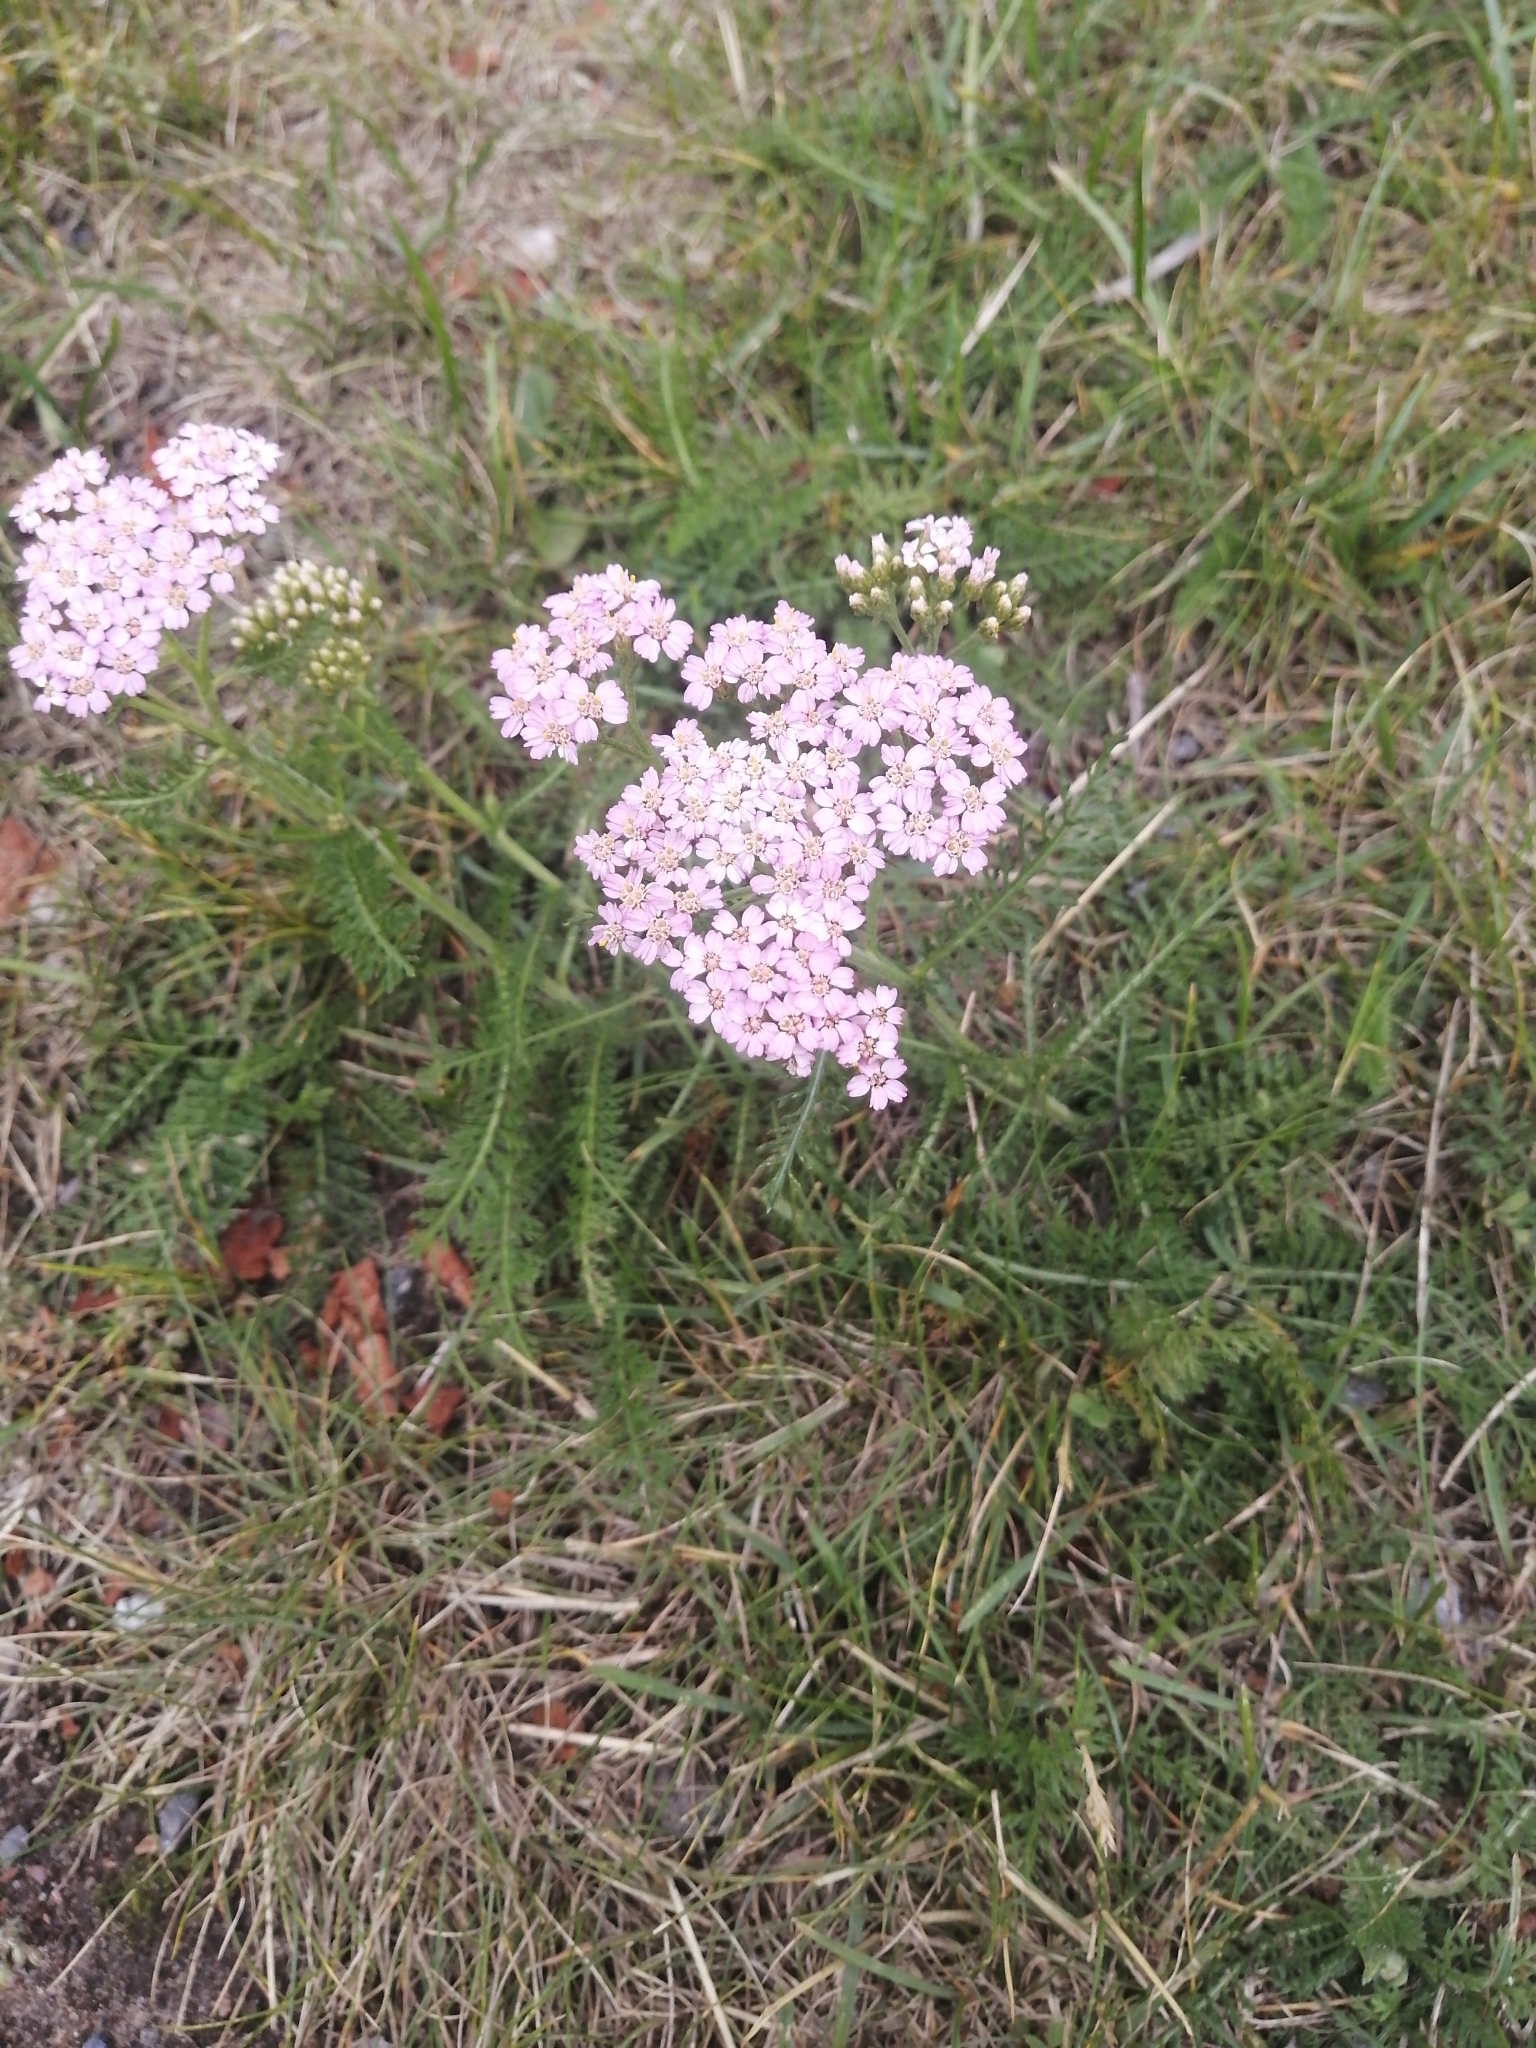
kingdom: Plantae
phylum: Tracheophyta
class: Magnoliopsida
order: Asterales
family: Asteraceae
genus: Achillea
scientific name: Achillea millefolium
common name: Yarrow
